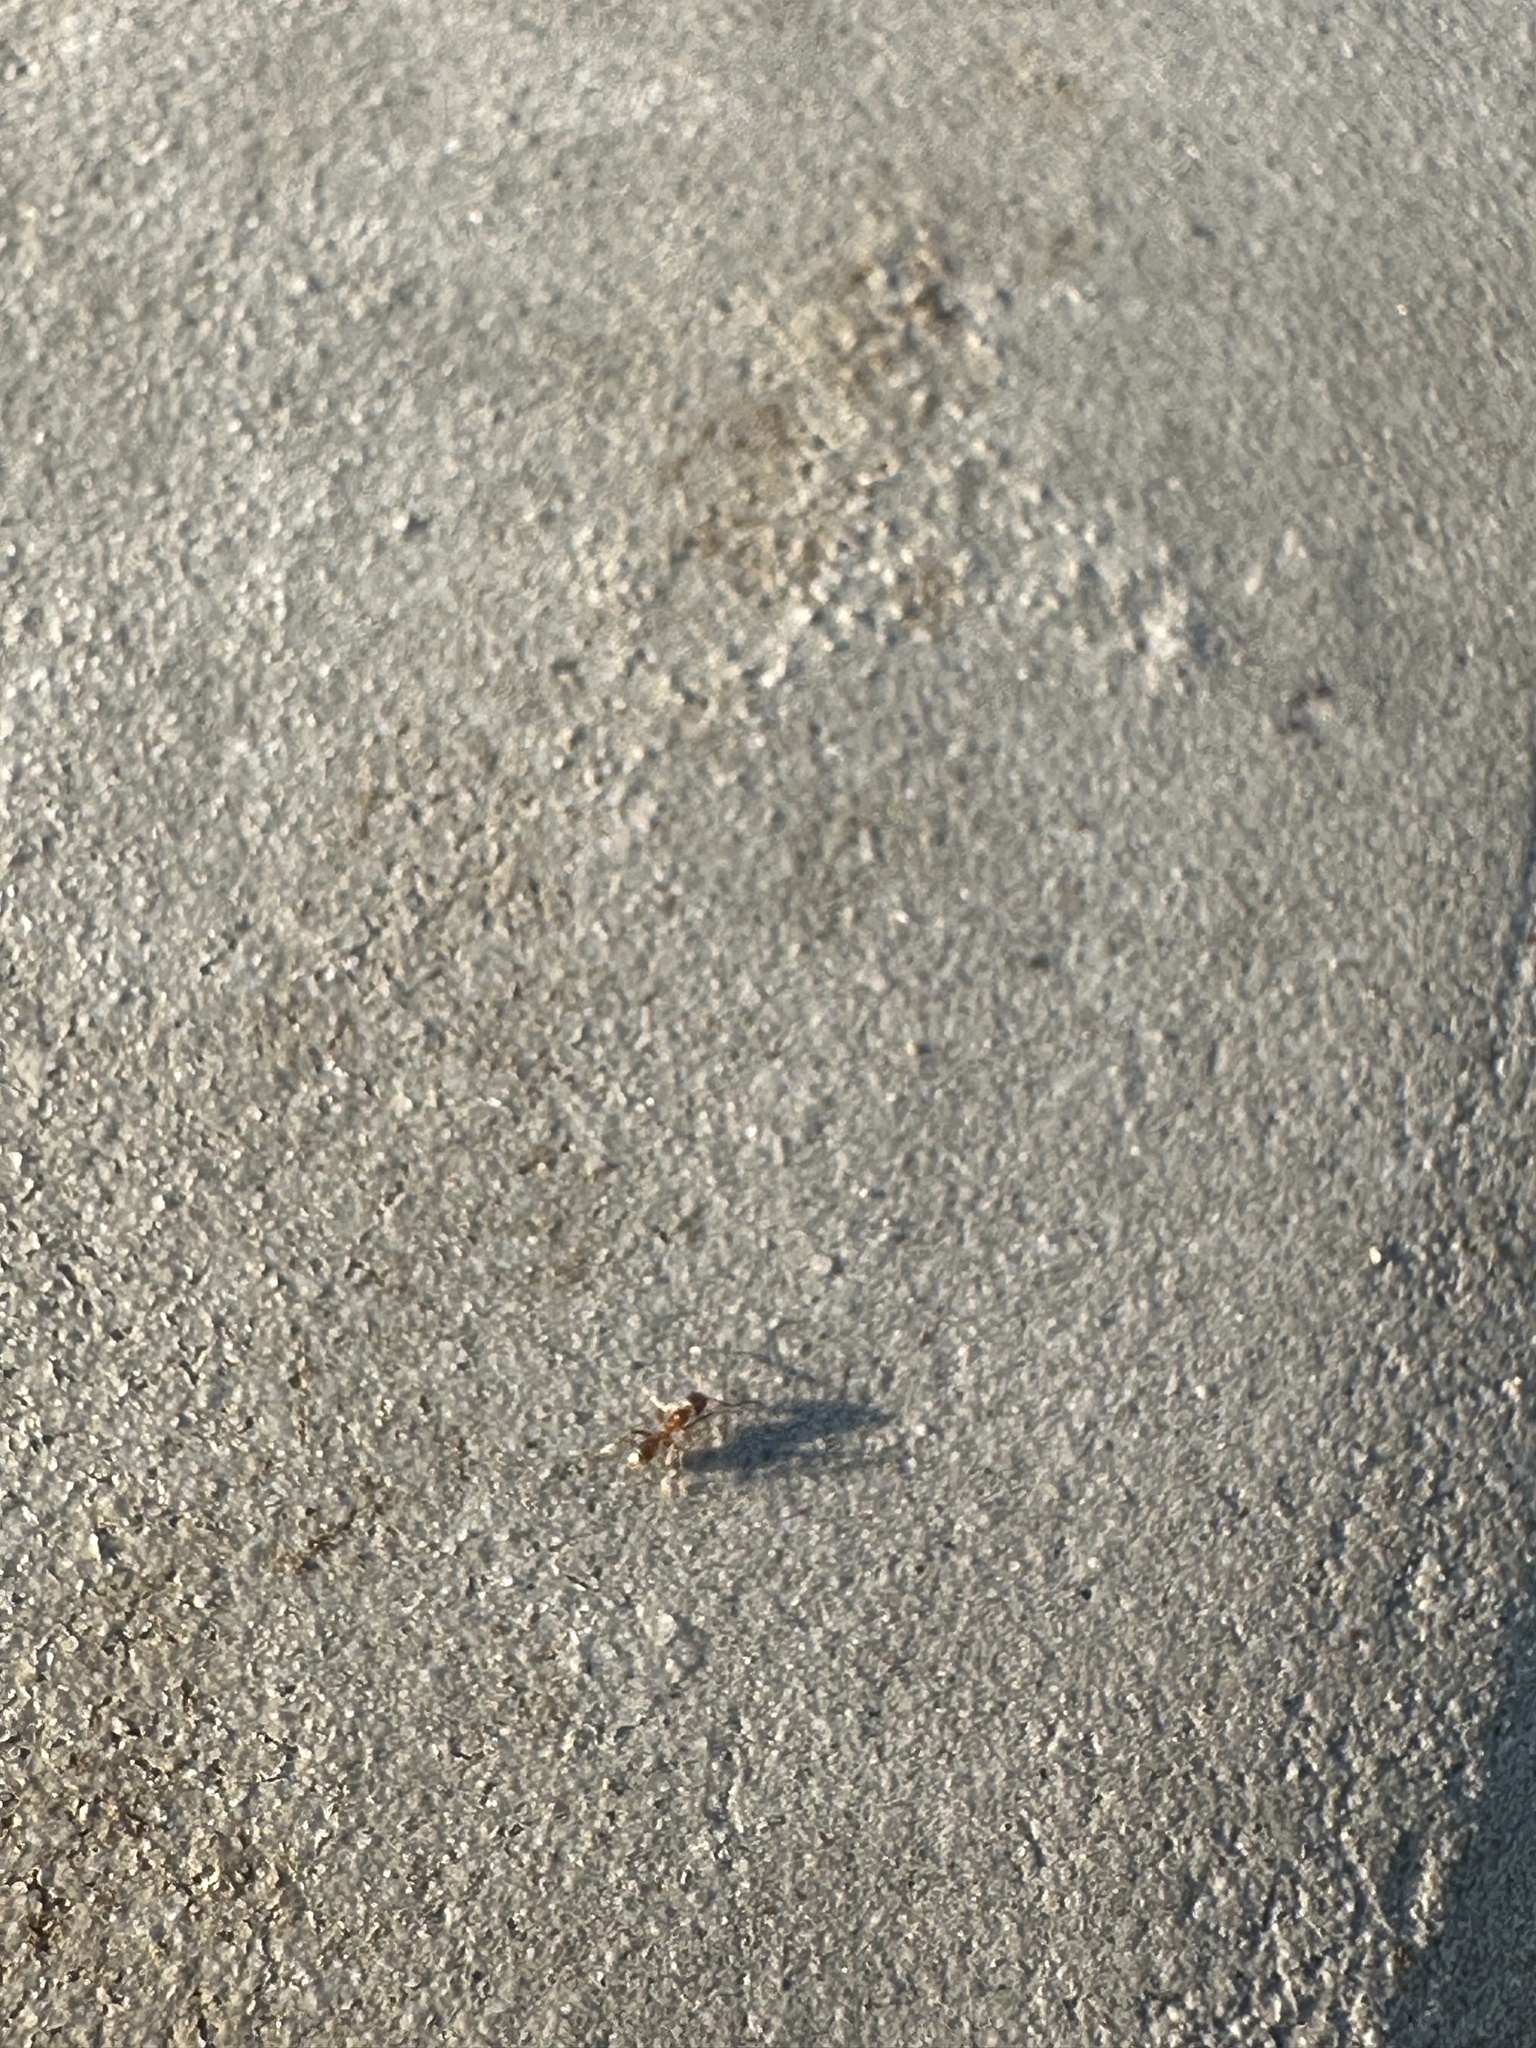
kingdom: Animalia
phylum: Arthropoda
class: Insecta
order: Hymenoptera
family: Formicidae
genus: Linepithema
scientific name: Linepithema humile
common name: Argentine ant
